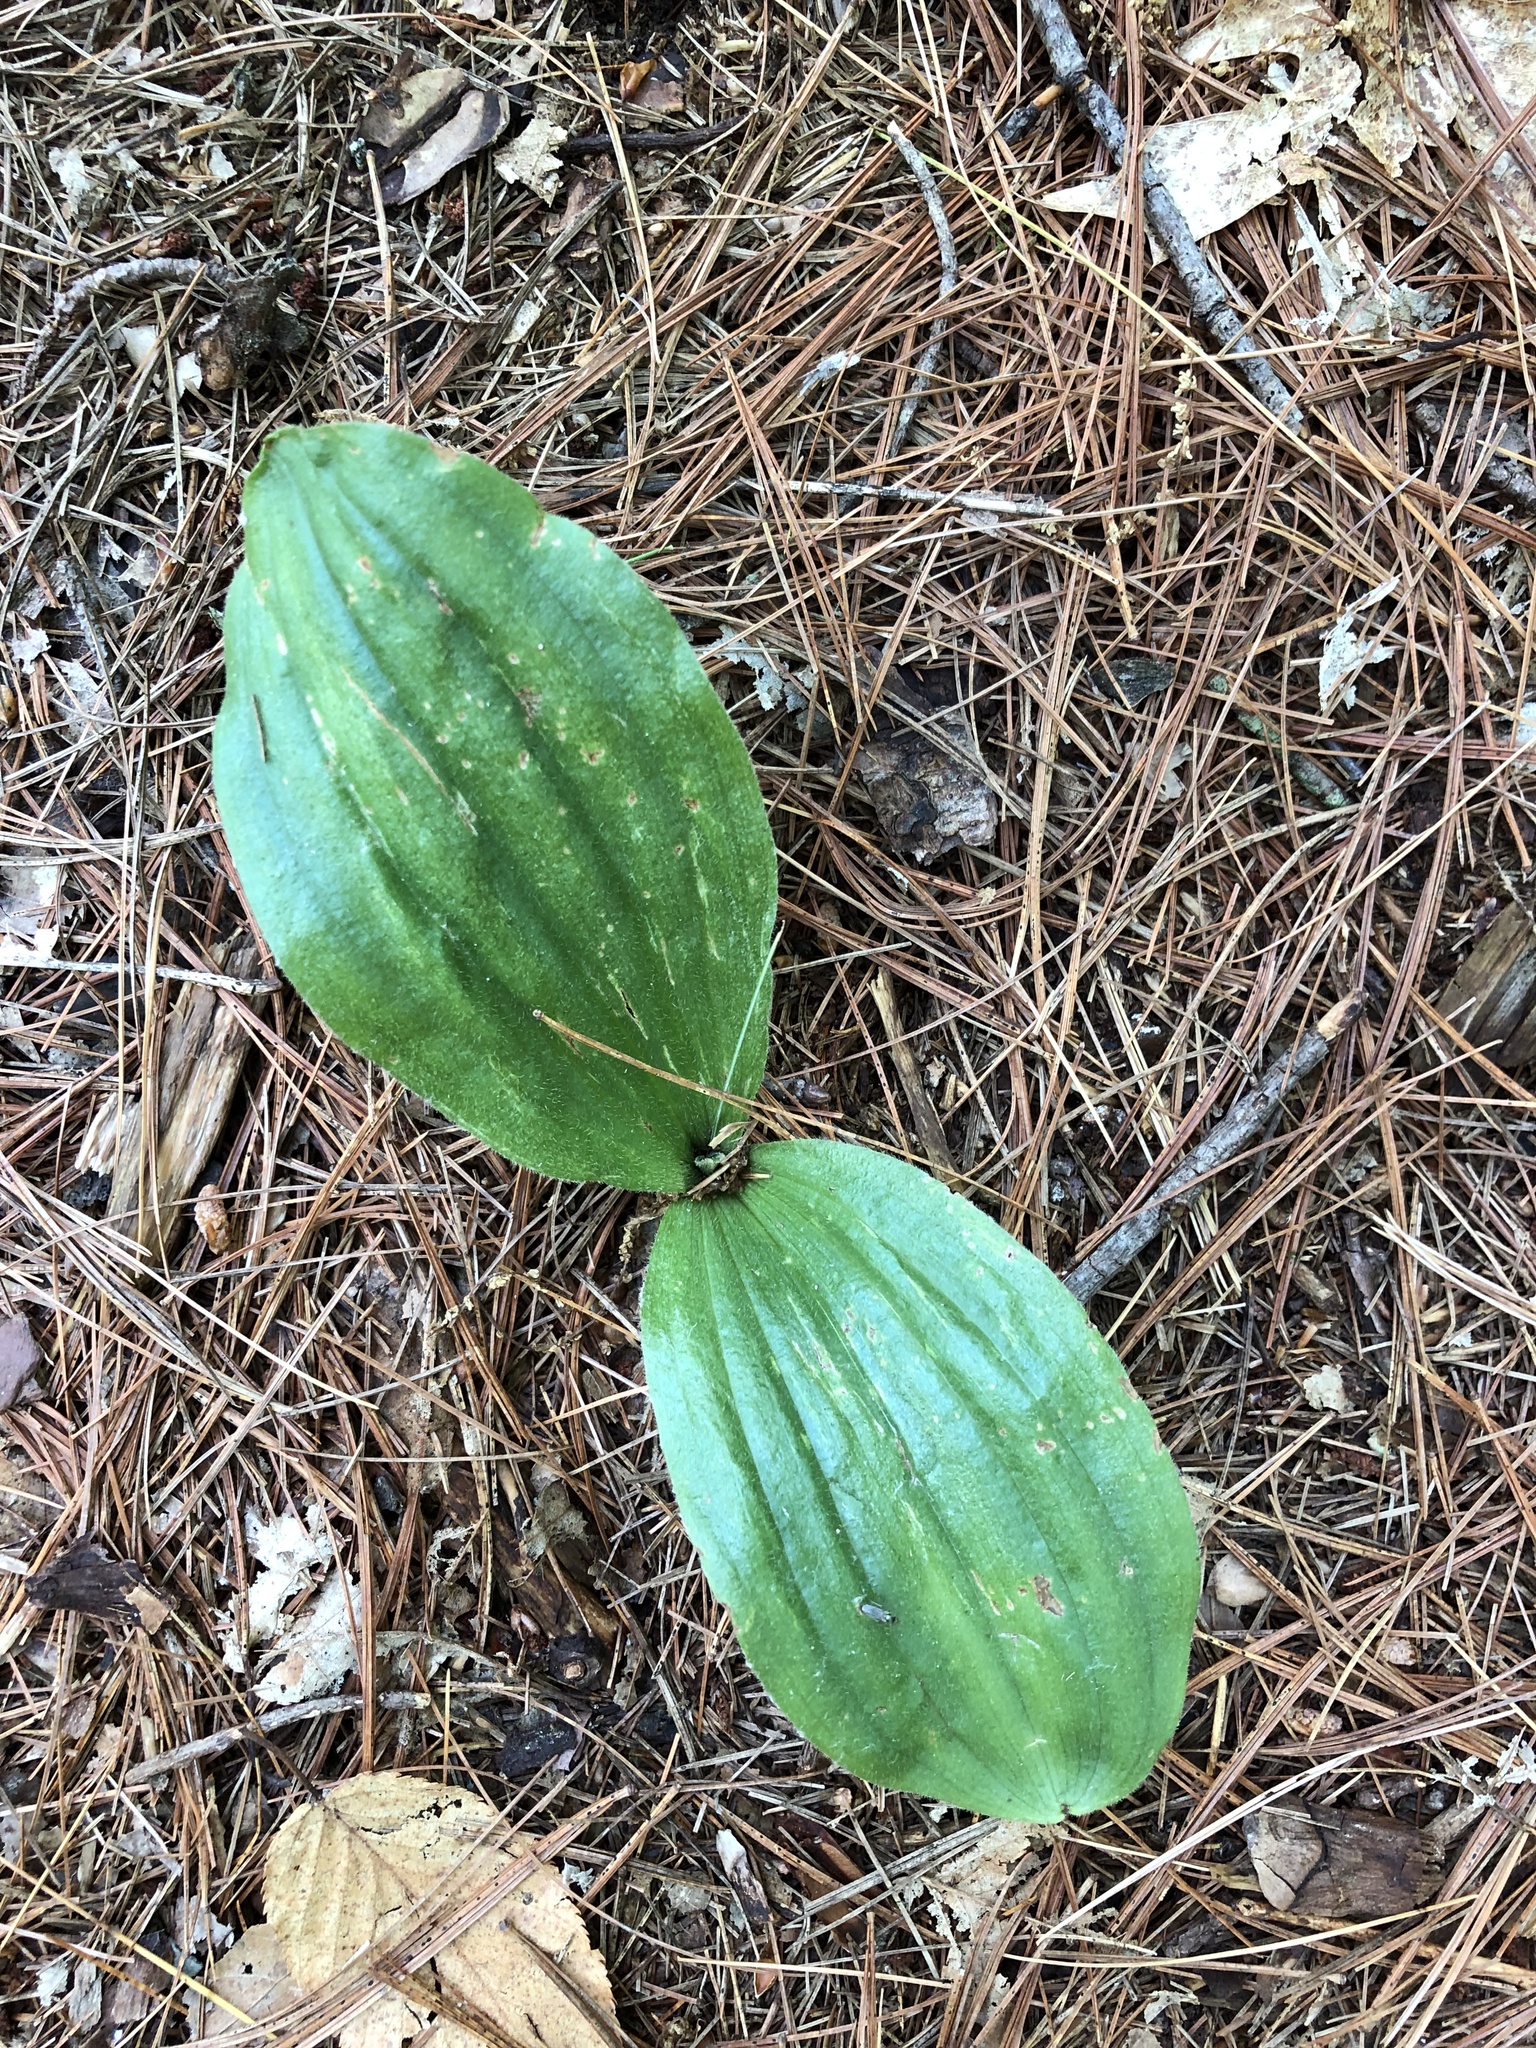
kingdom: Plantae
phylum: Tracheophyta
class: Liliopsida
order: Asparagales
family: Orchidaceae
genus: Cypripedium
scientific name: Cypripedium acaule
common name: Pink lady's-slipper
